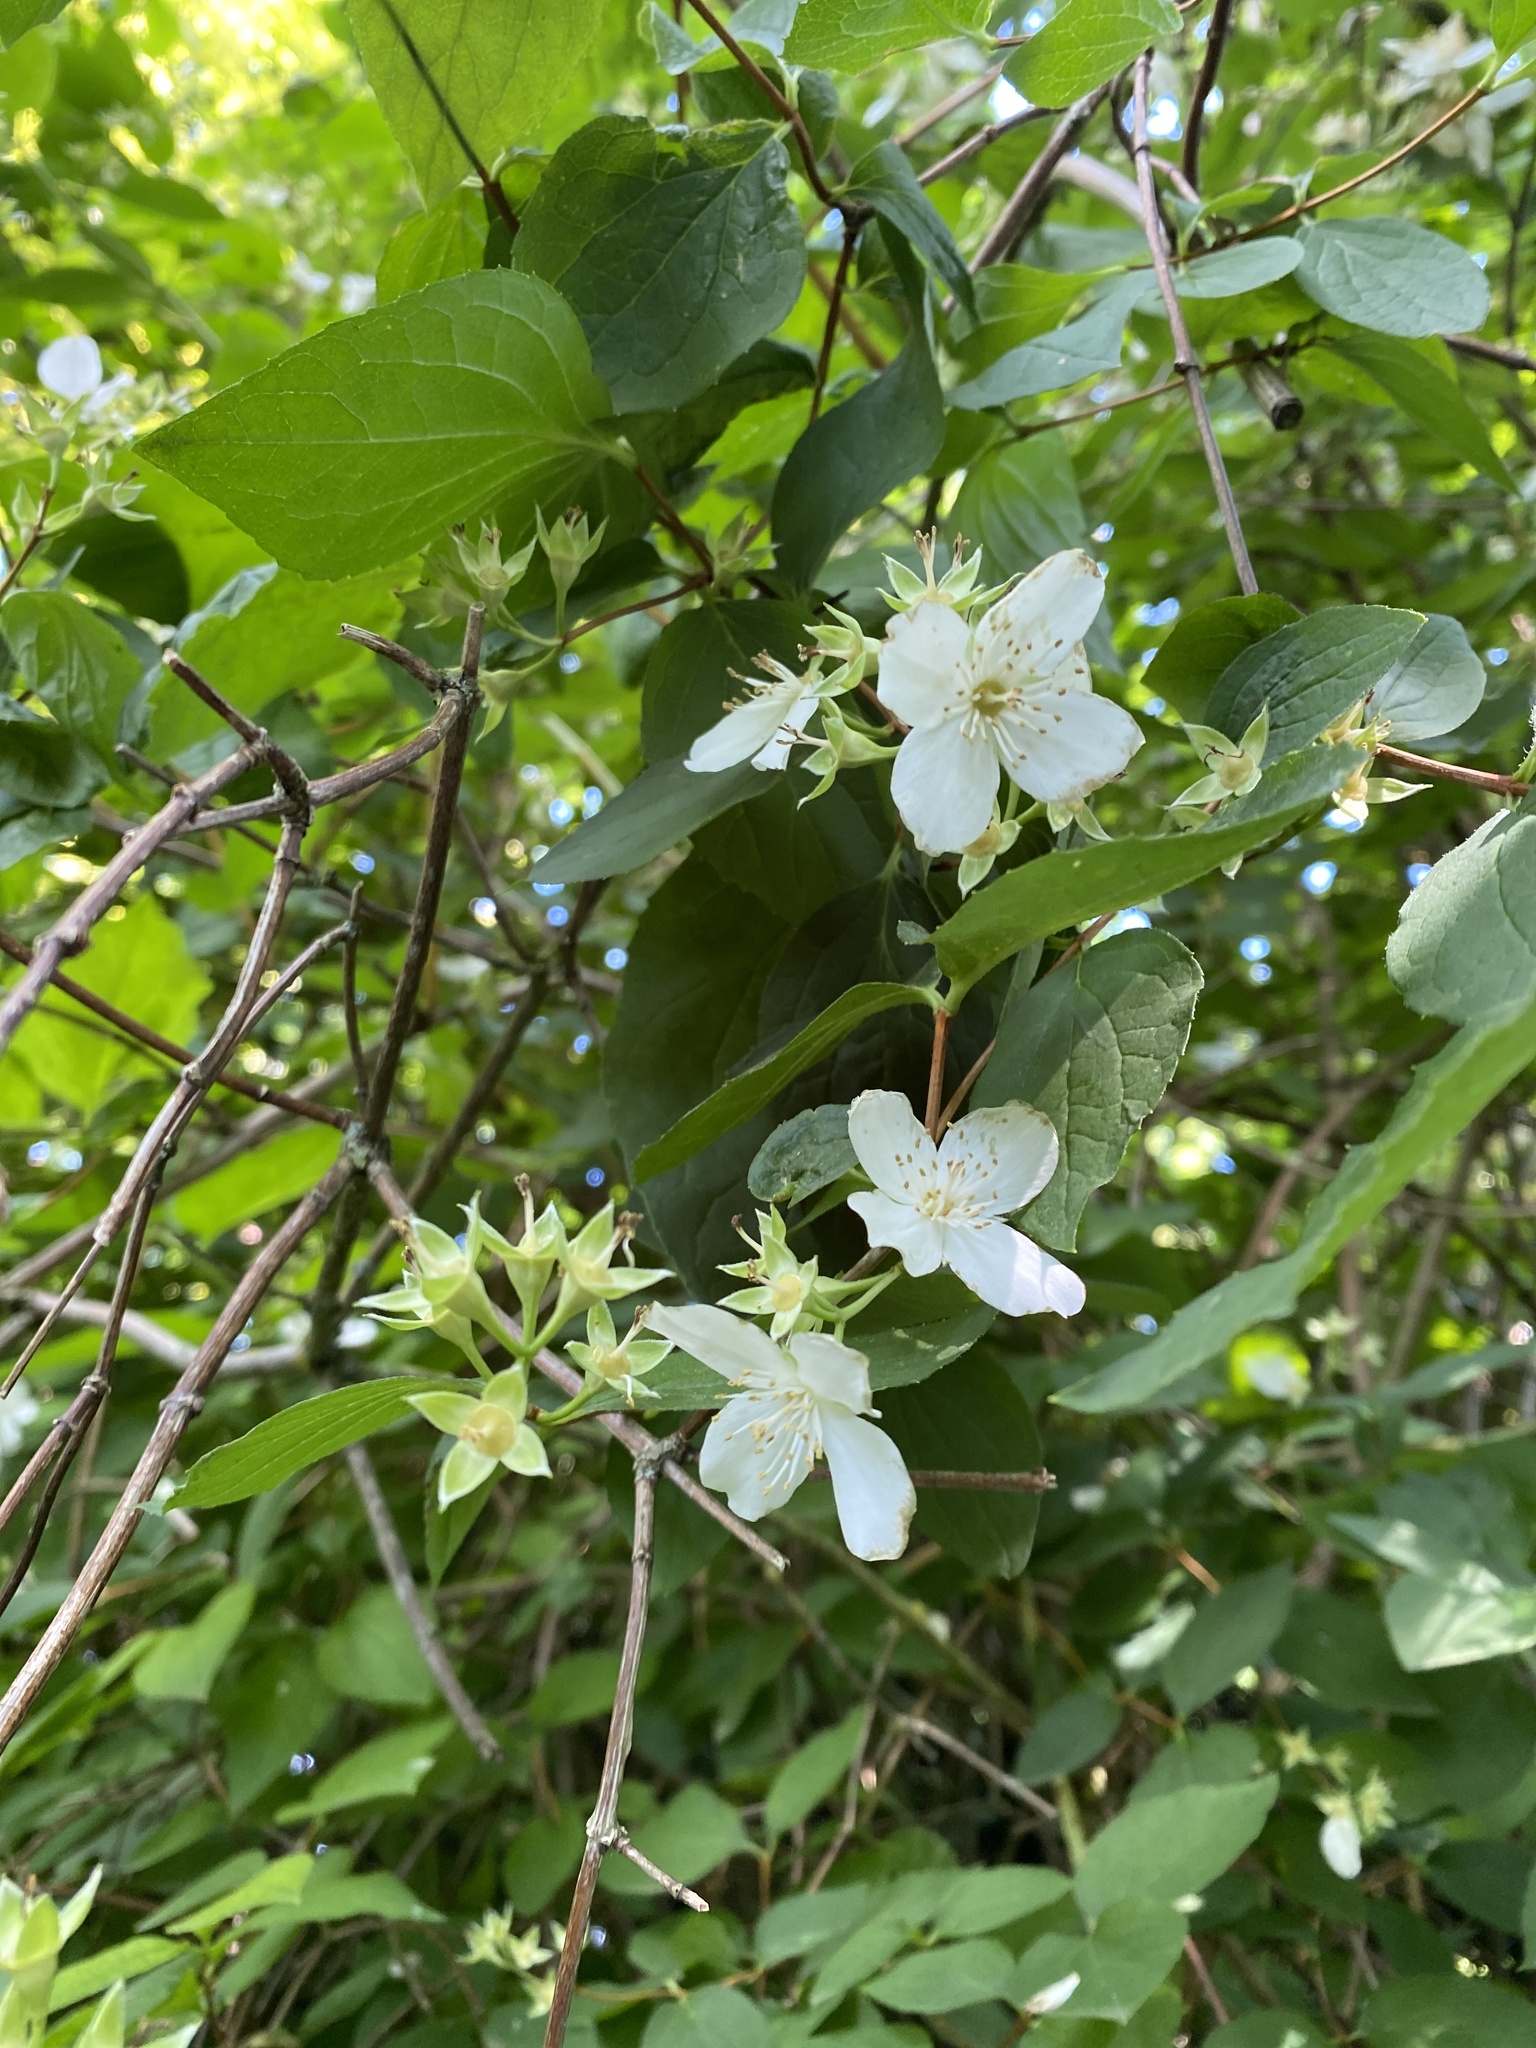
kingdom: Plantae
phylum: Tracheophyta
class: Magnoliopsida
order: Cornales
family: Hydrangeaceae
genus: Philadelphus
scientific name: Philadelphus coronarius
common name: Mock orange
